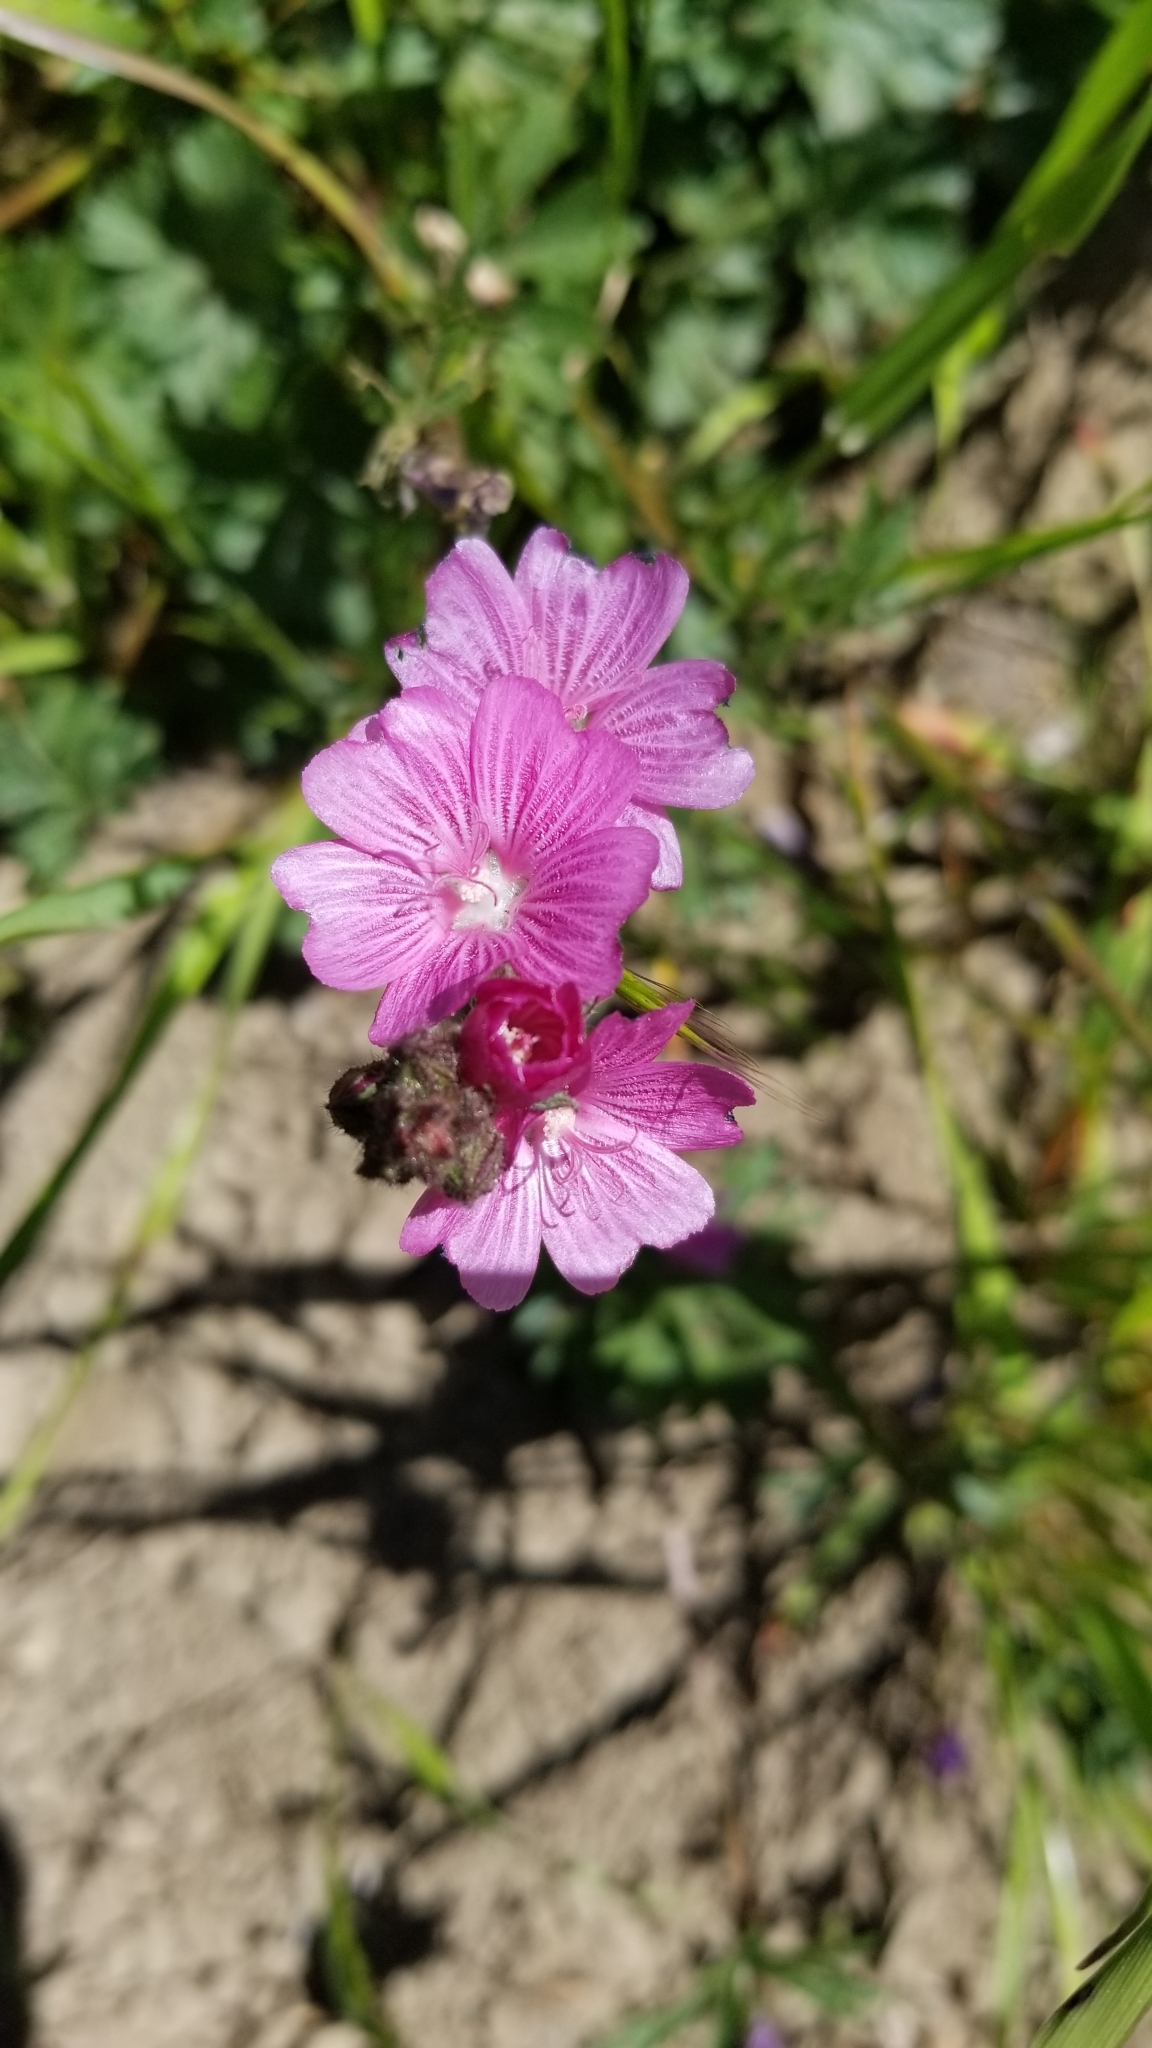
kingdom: Plantae
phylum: Tracheophyta
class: Magnoliopsida
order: Malvales
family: Malvaceae
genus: Sidalcea
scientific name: Sidalcea malviflora
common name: Greek mallow
